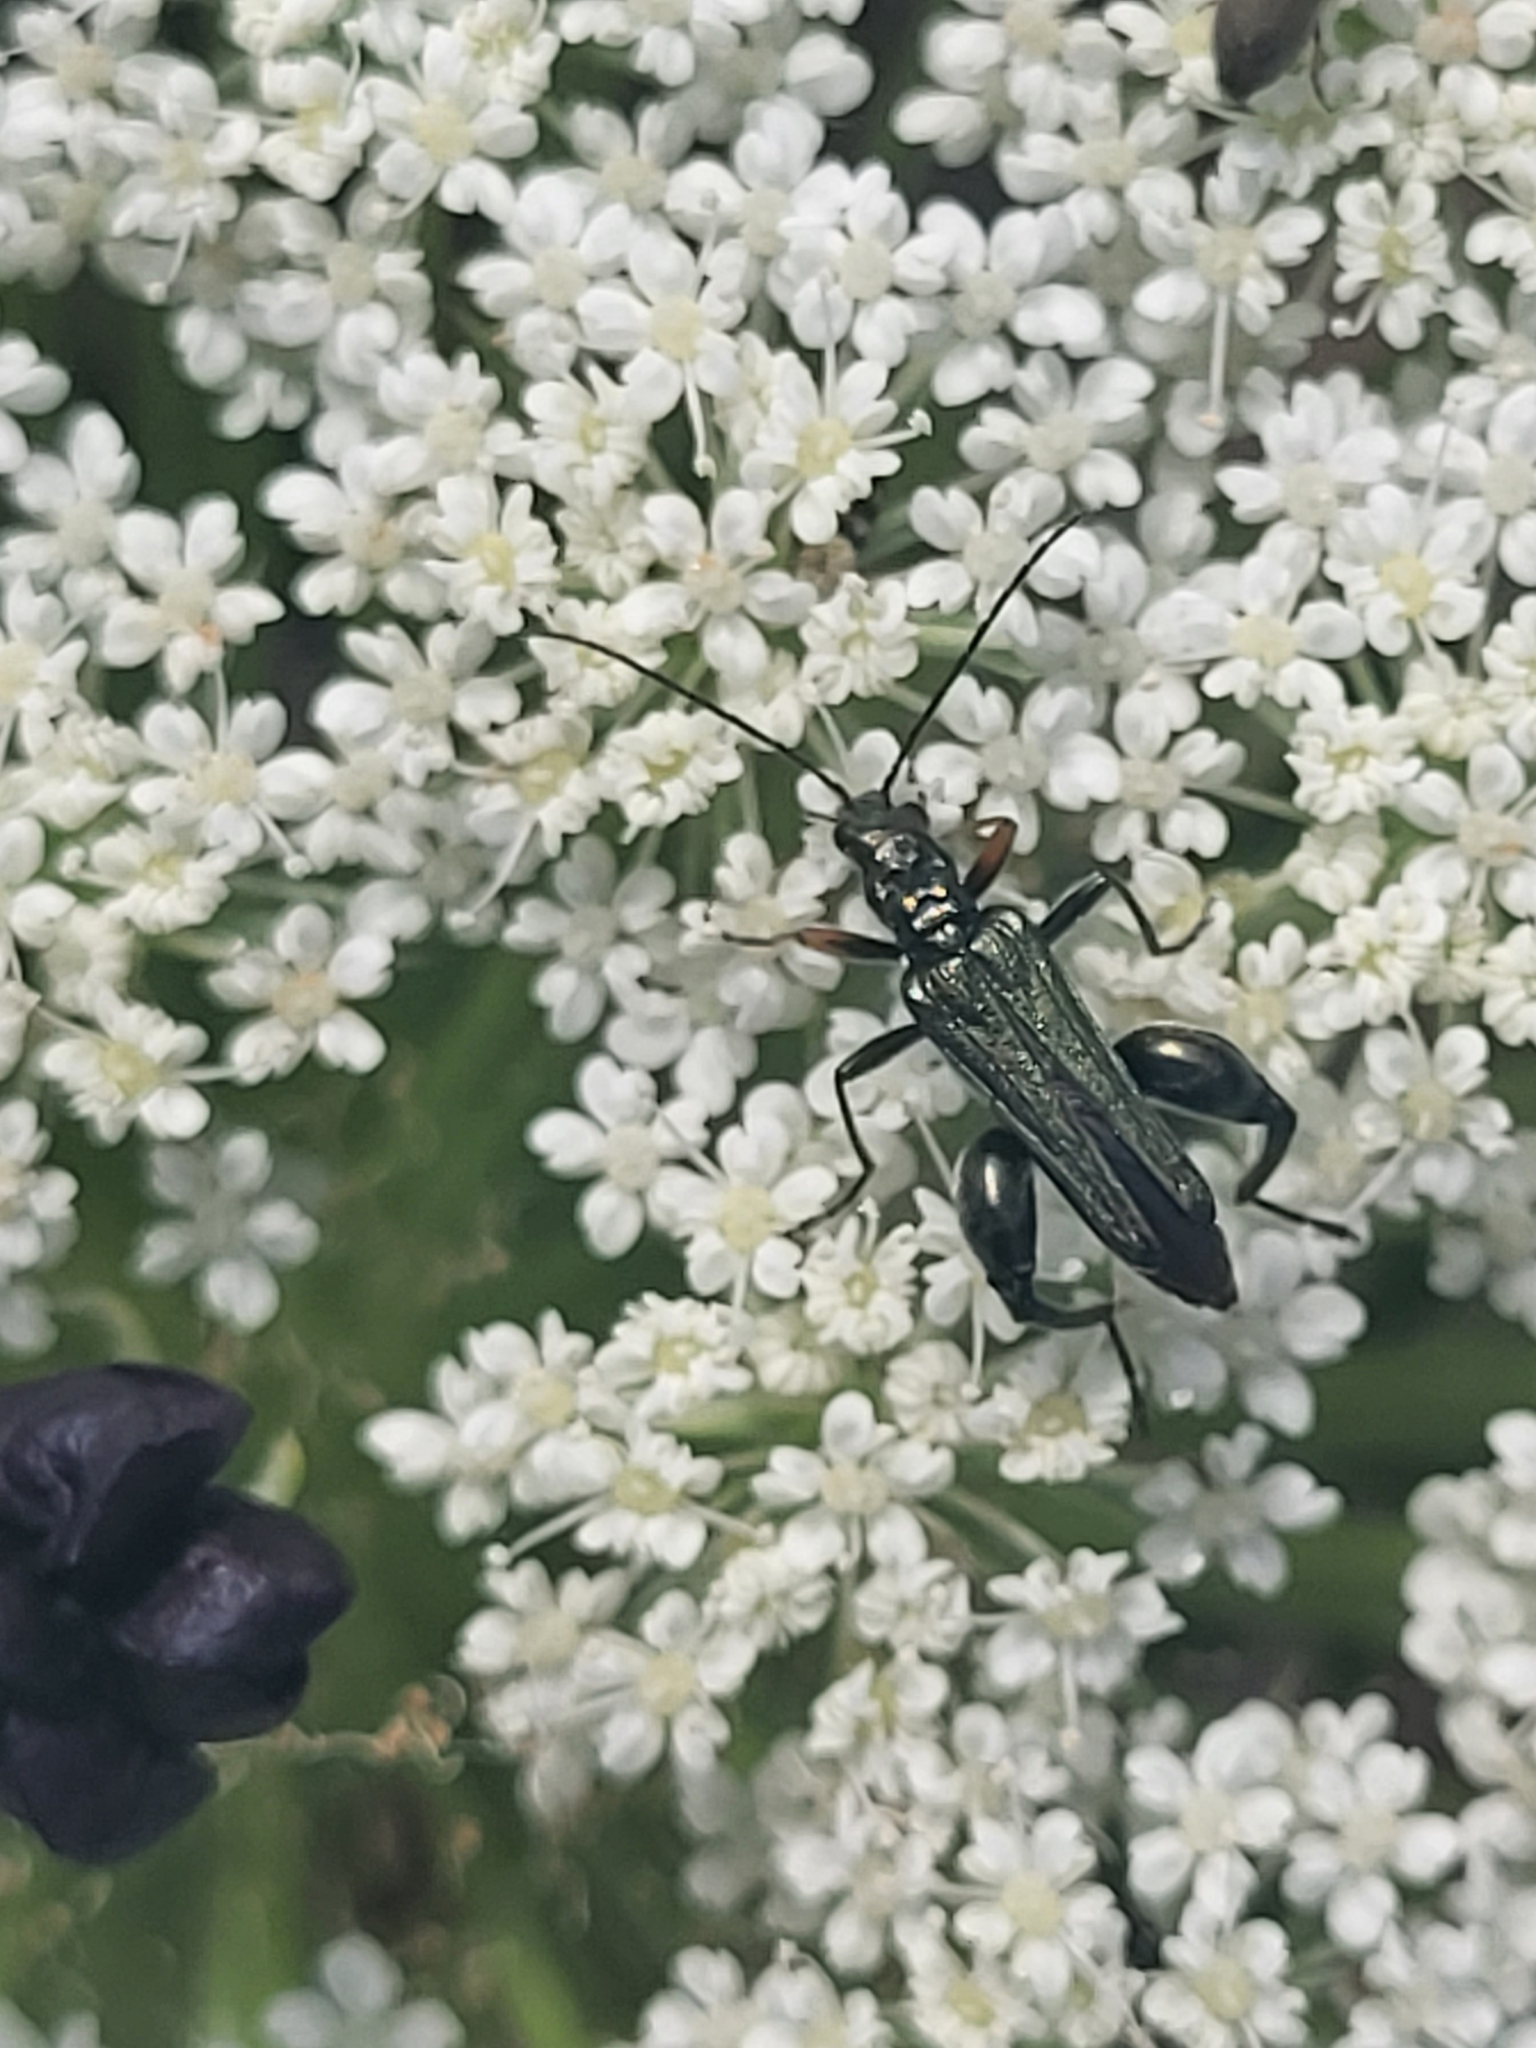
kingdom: Animalia
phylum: Arthropoda
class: Insecta
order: Coleoptera
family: Oedemeridae
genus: Oedemera
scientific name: Oedemera flavipes
